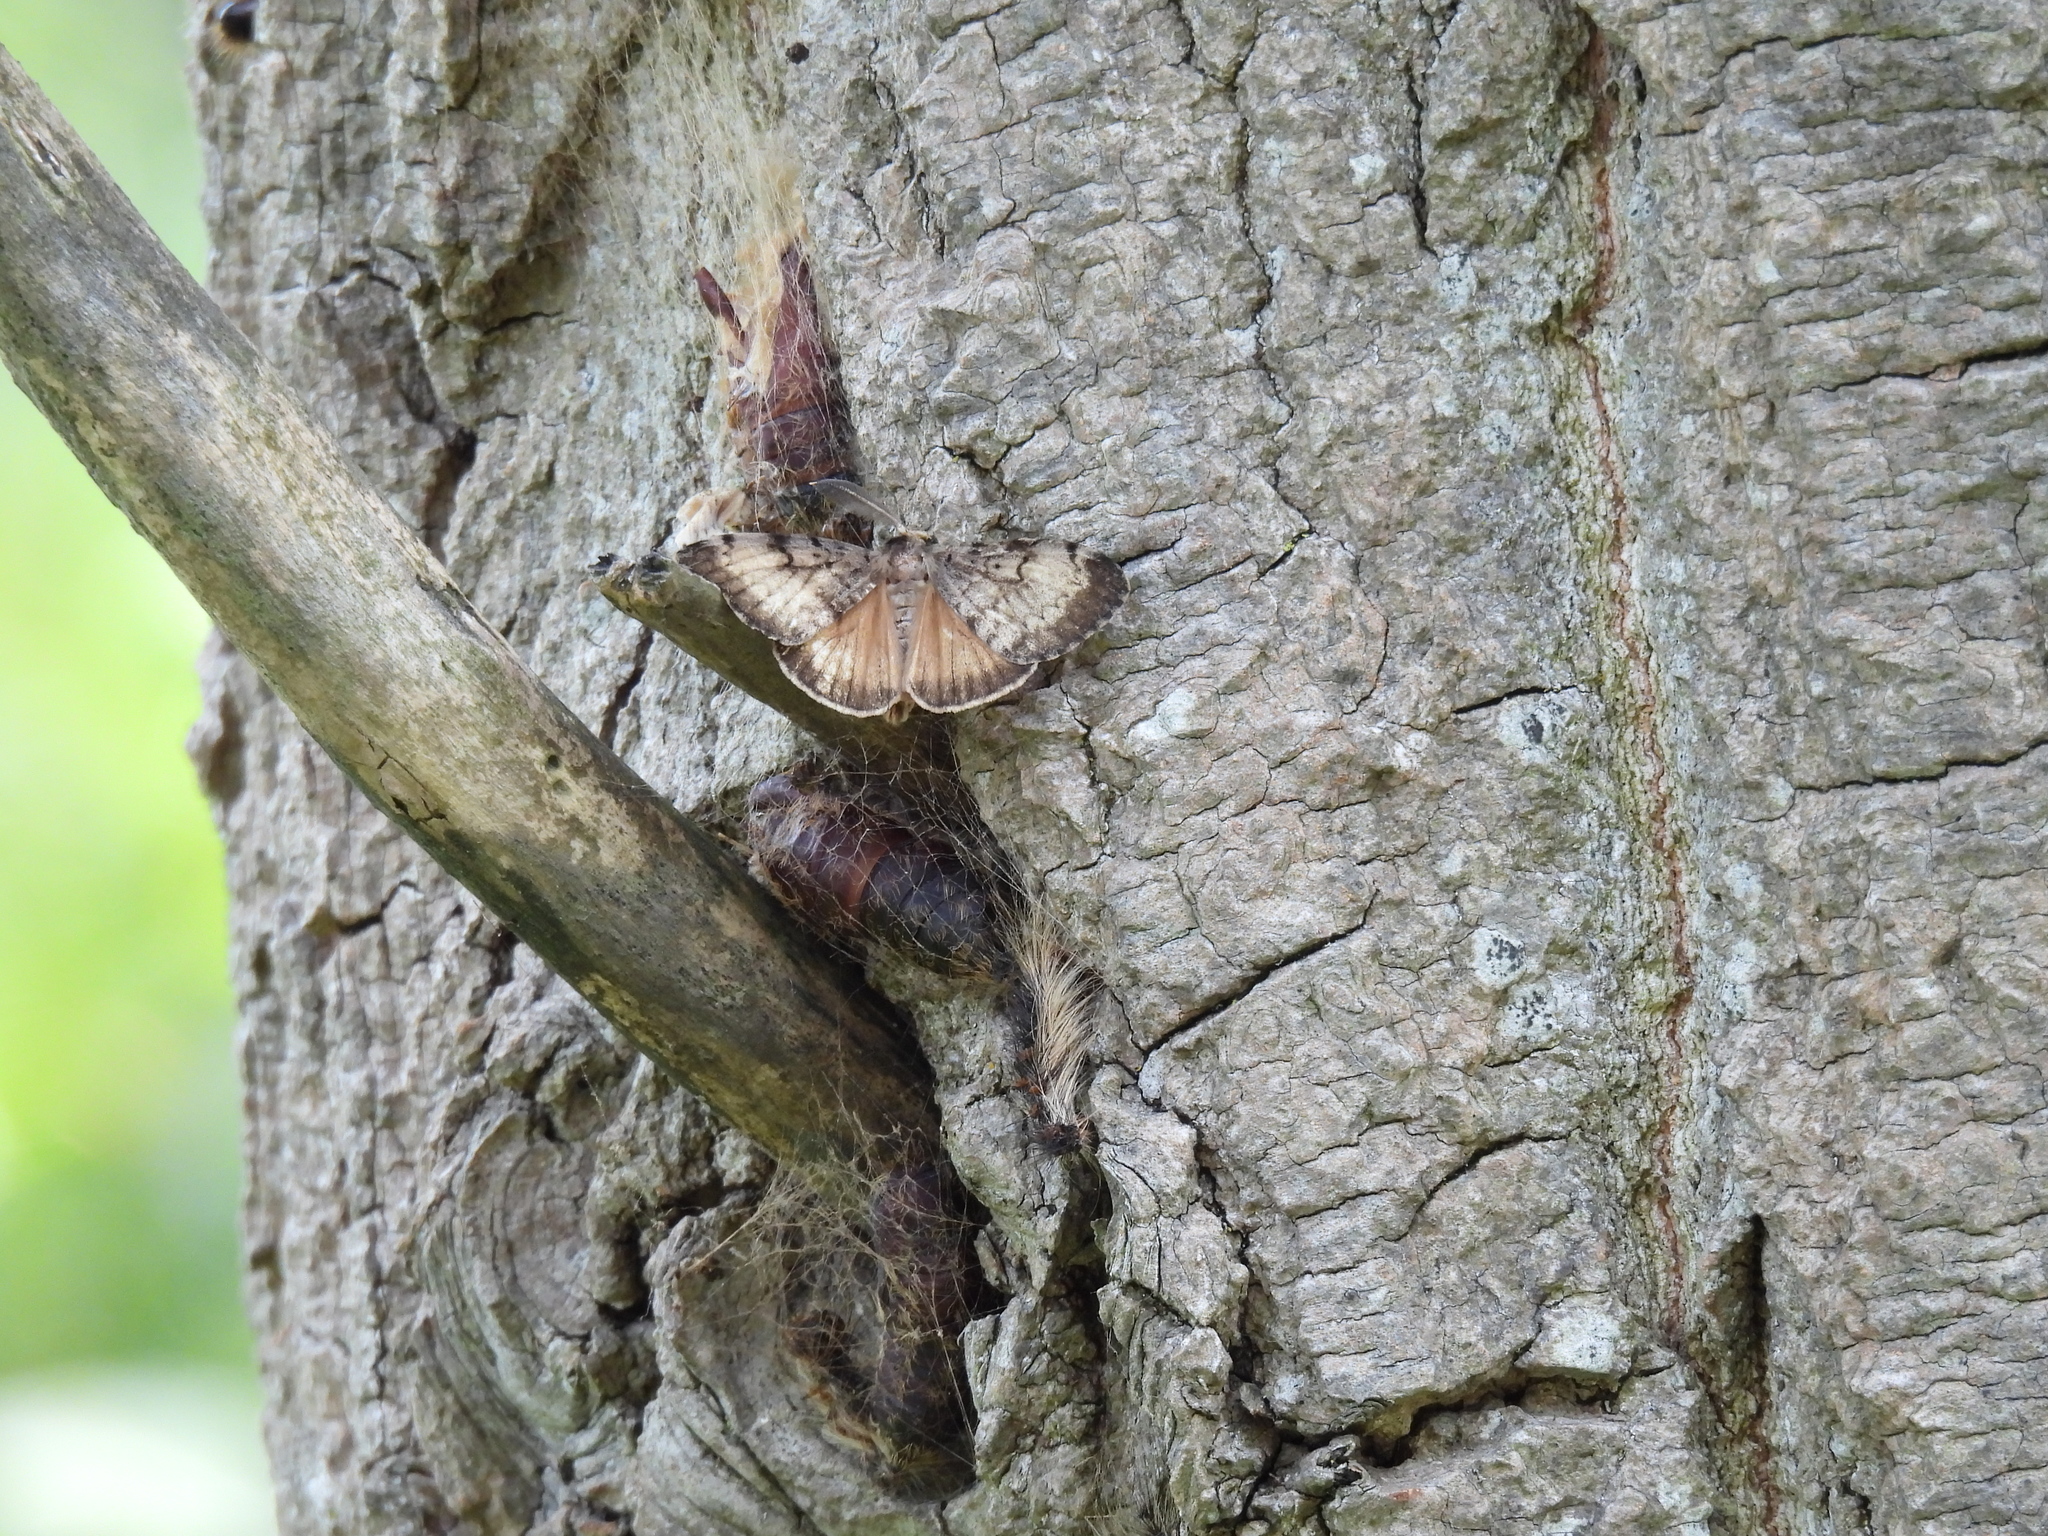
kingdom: Animalia
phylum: Arthropoda
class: Insecta
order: Lepidoptera
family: Erebidae
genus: Lymantria
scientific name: Lymantria dispar
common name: Gypsy moth
